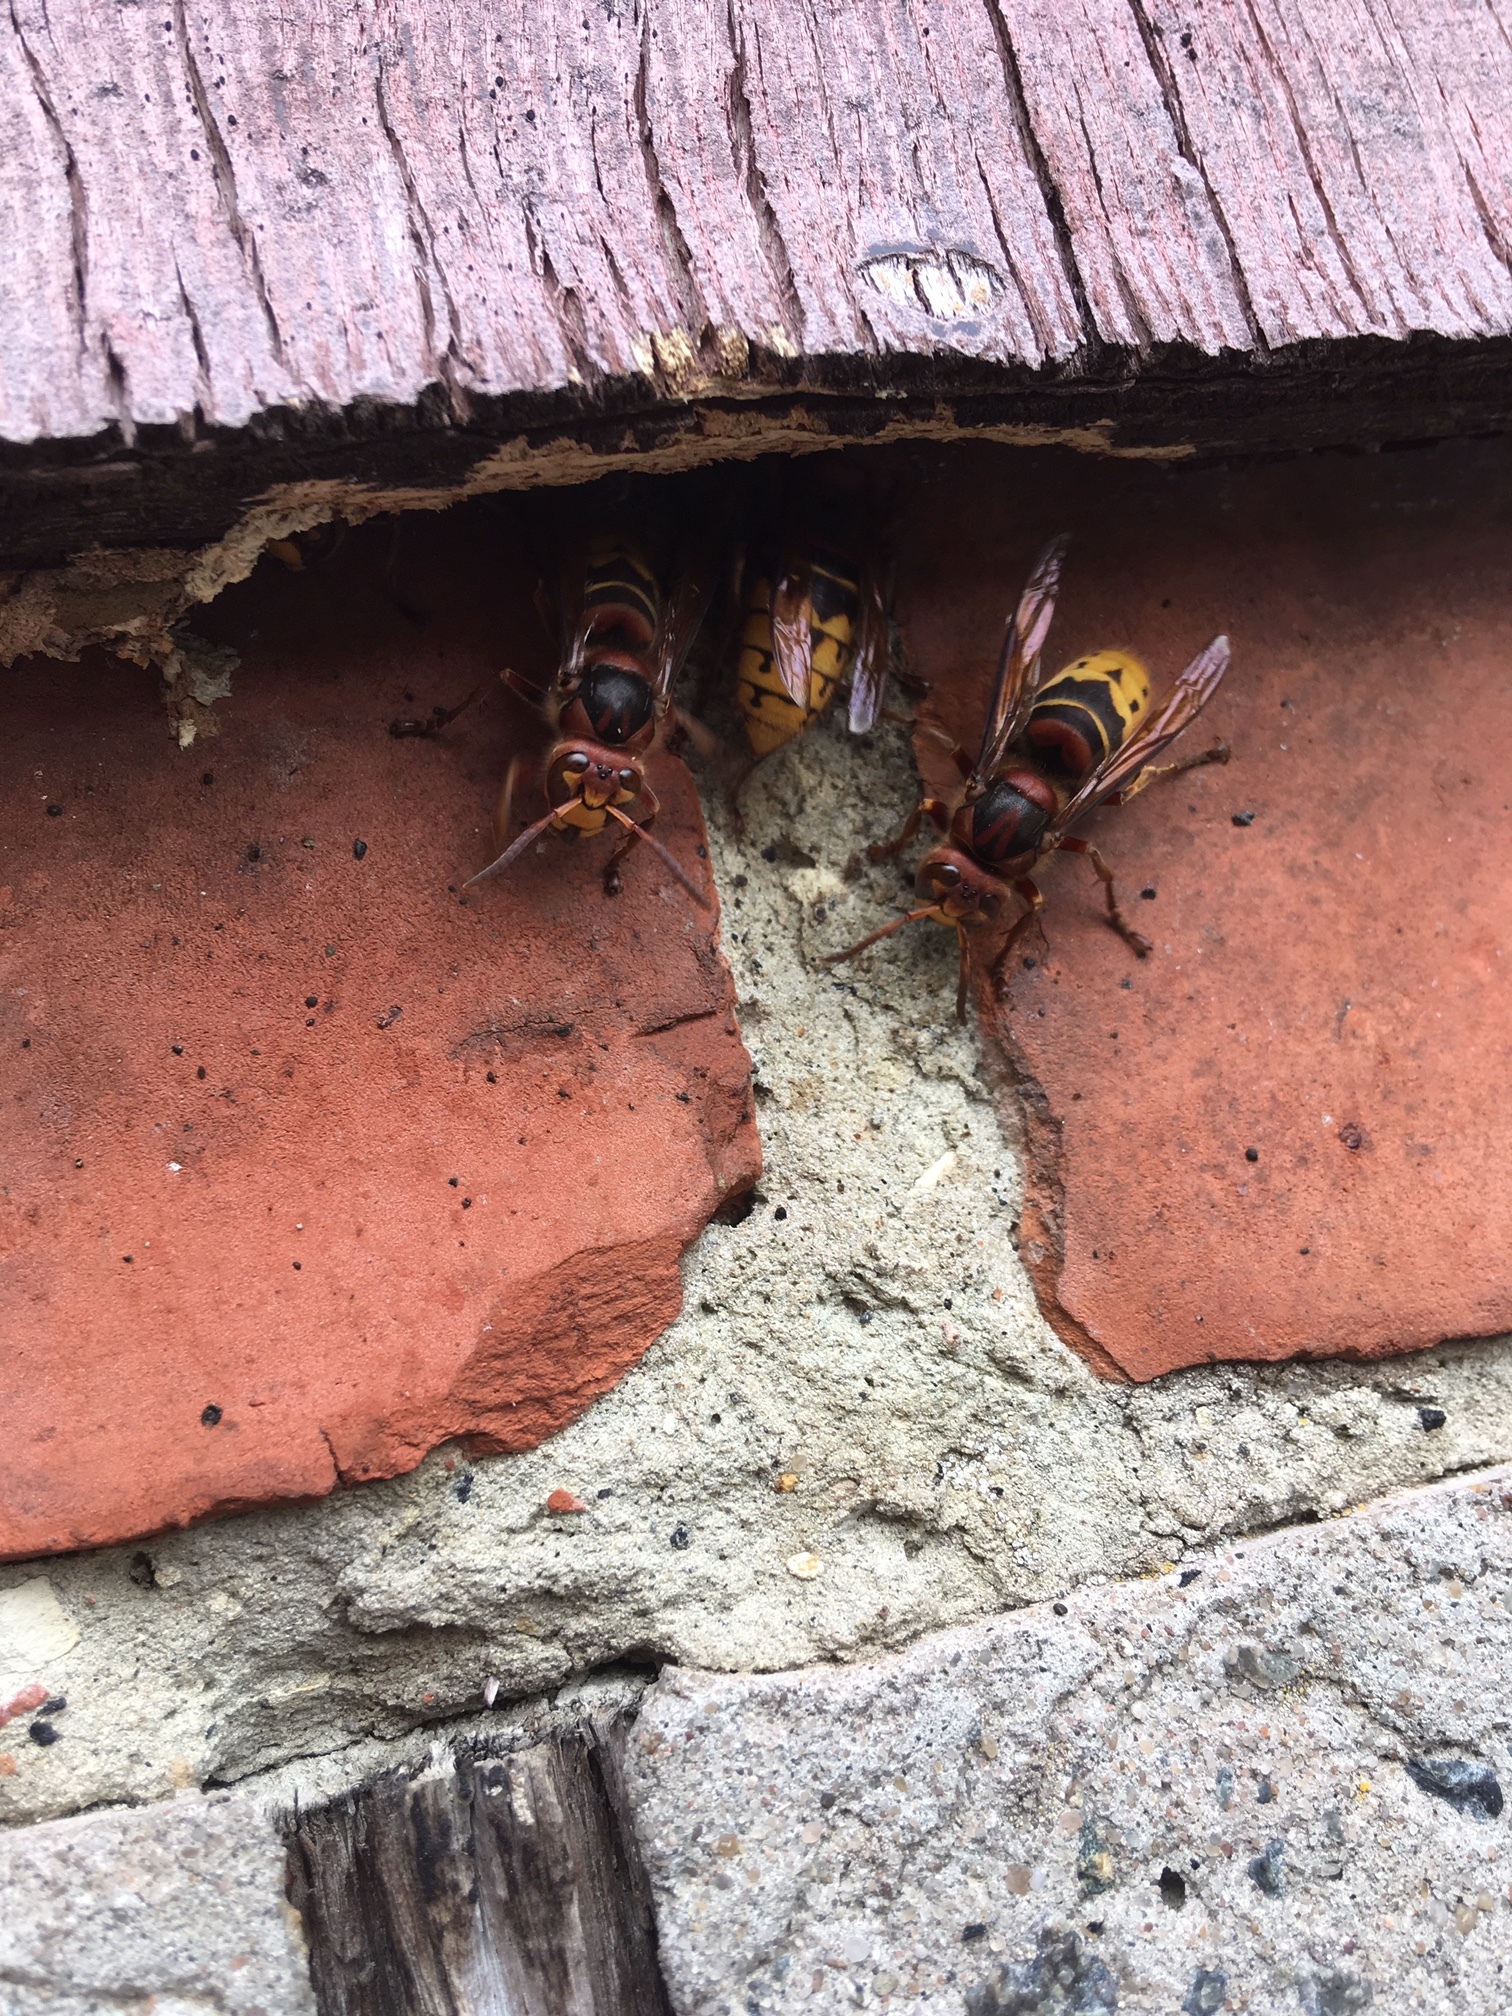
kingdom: Animalia
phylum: Arthropoda
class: Insecta
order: Hymenoptera
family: Vespidae
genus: Vespa
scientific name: Vespa crabro
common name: Hornet
